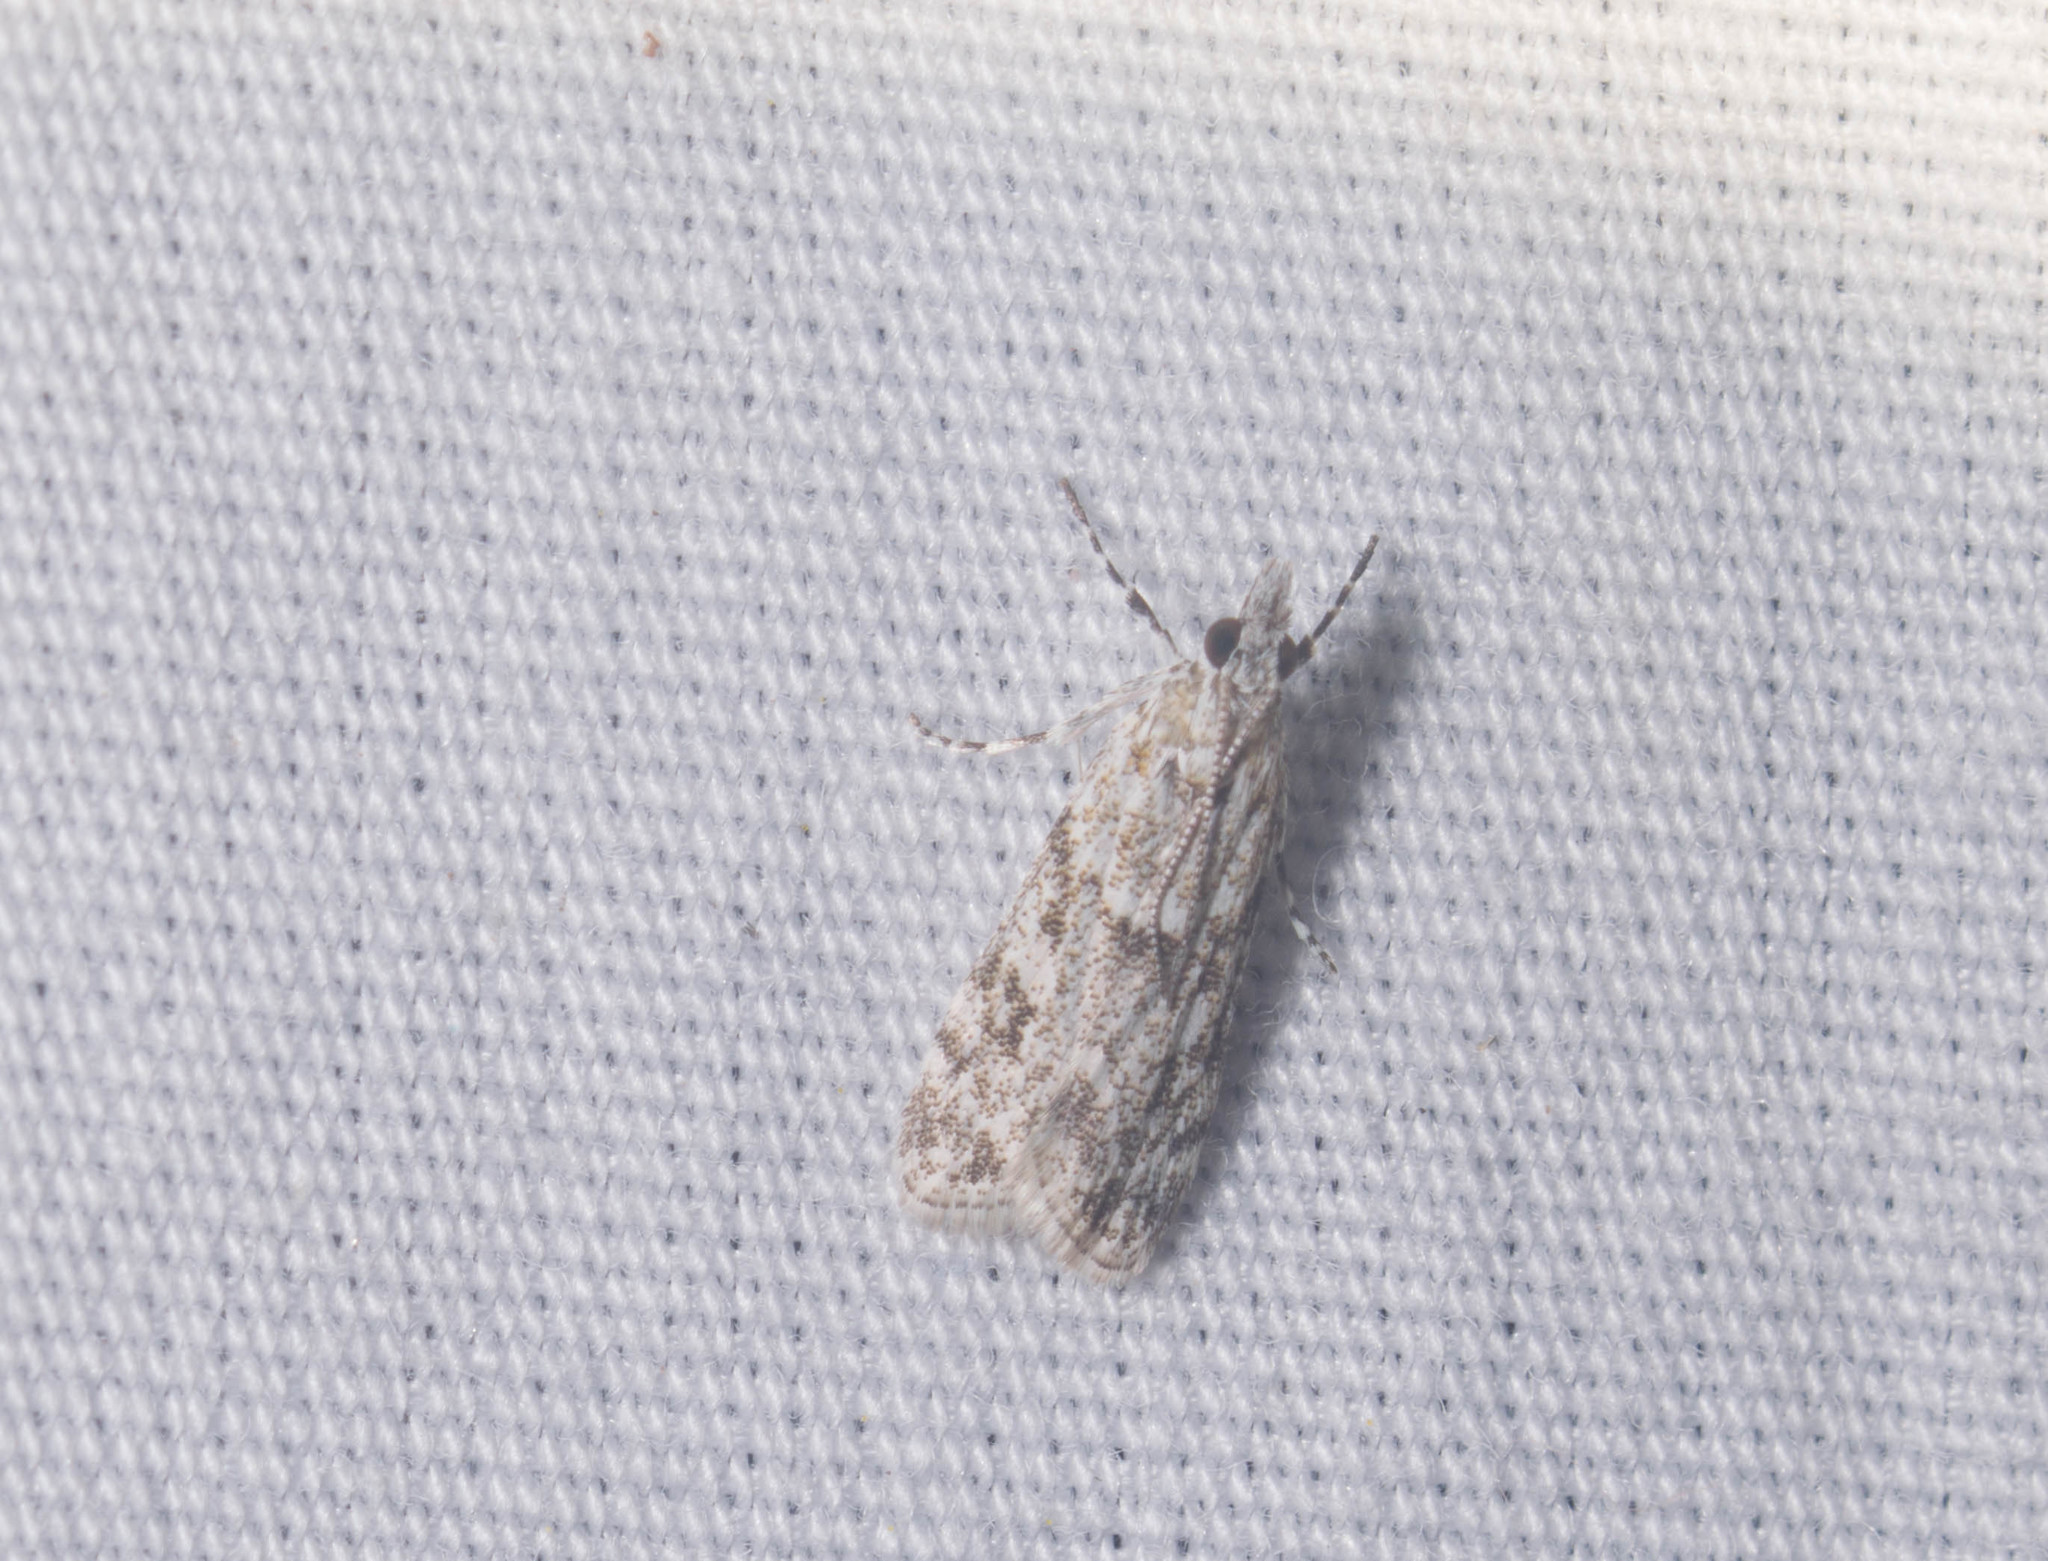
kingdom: Animalia
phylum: Arthropoda
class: Insecta
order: Lepidoptera
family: Crambidae
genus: Eudonia
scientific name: Eudonia geraea
